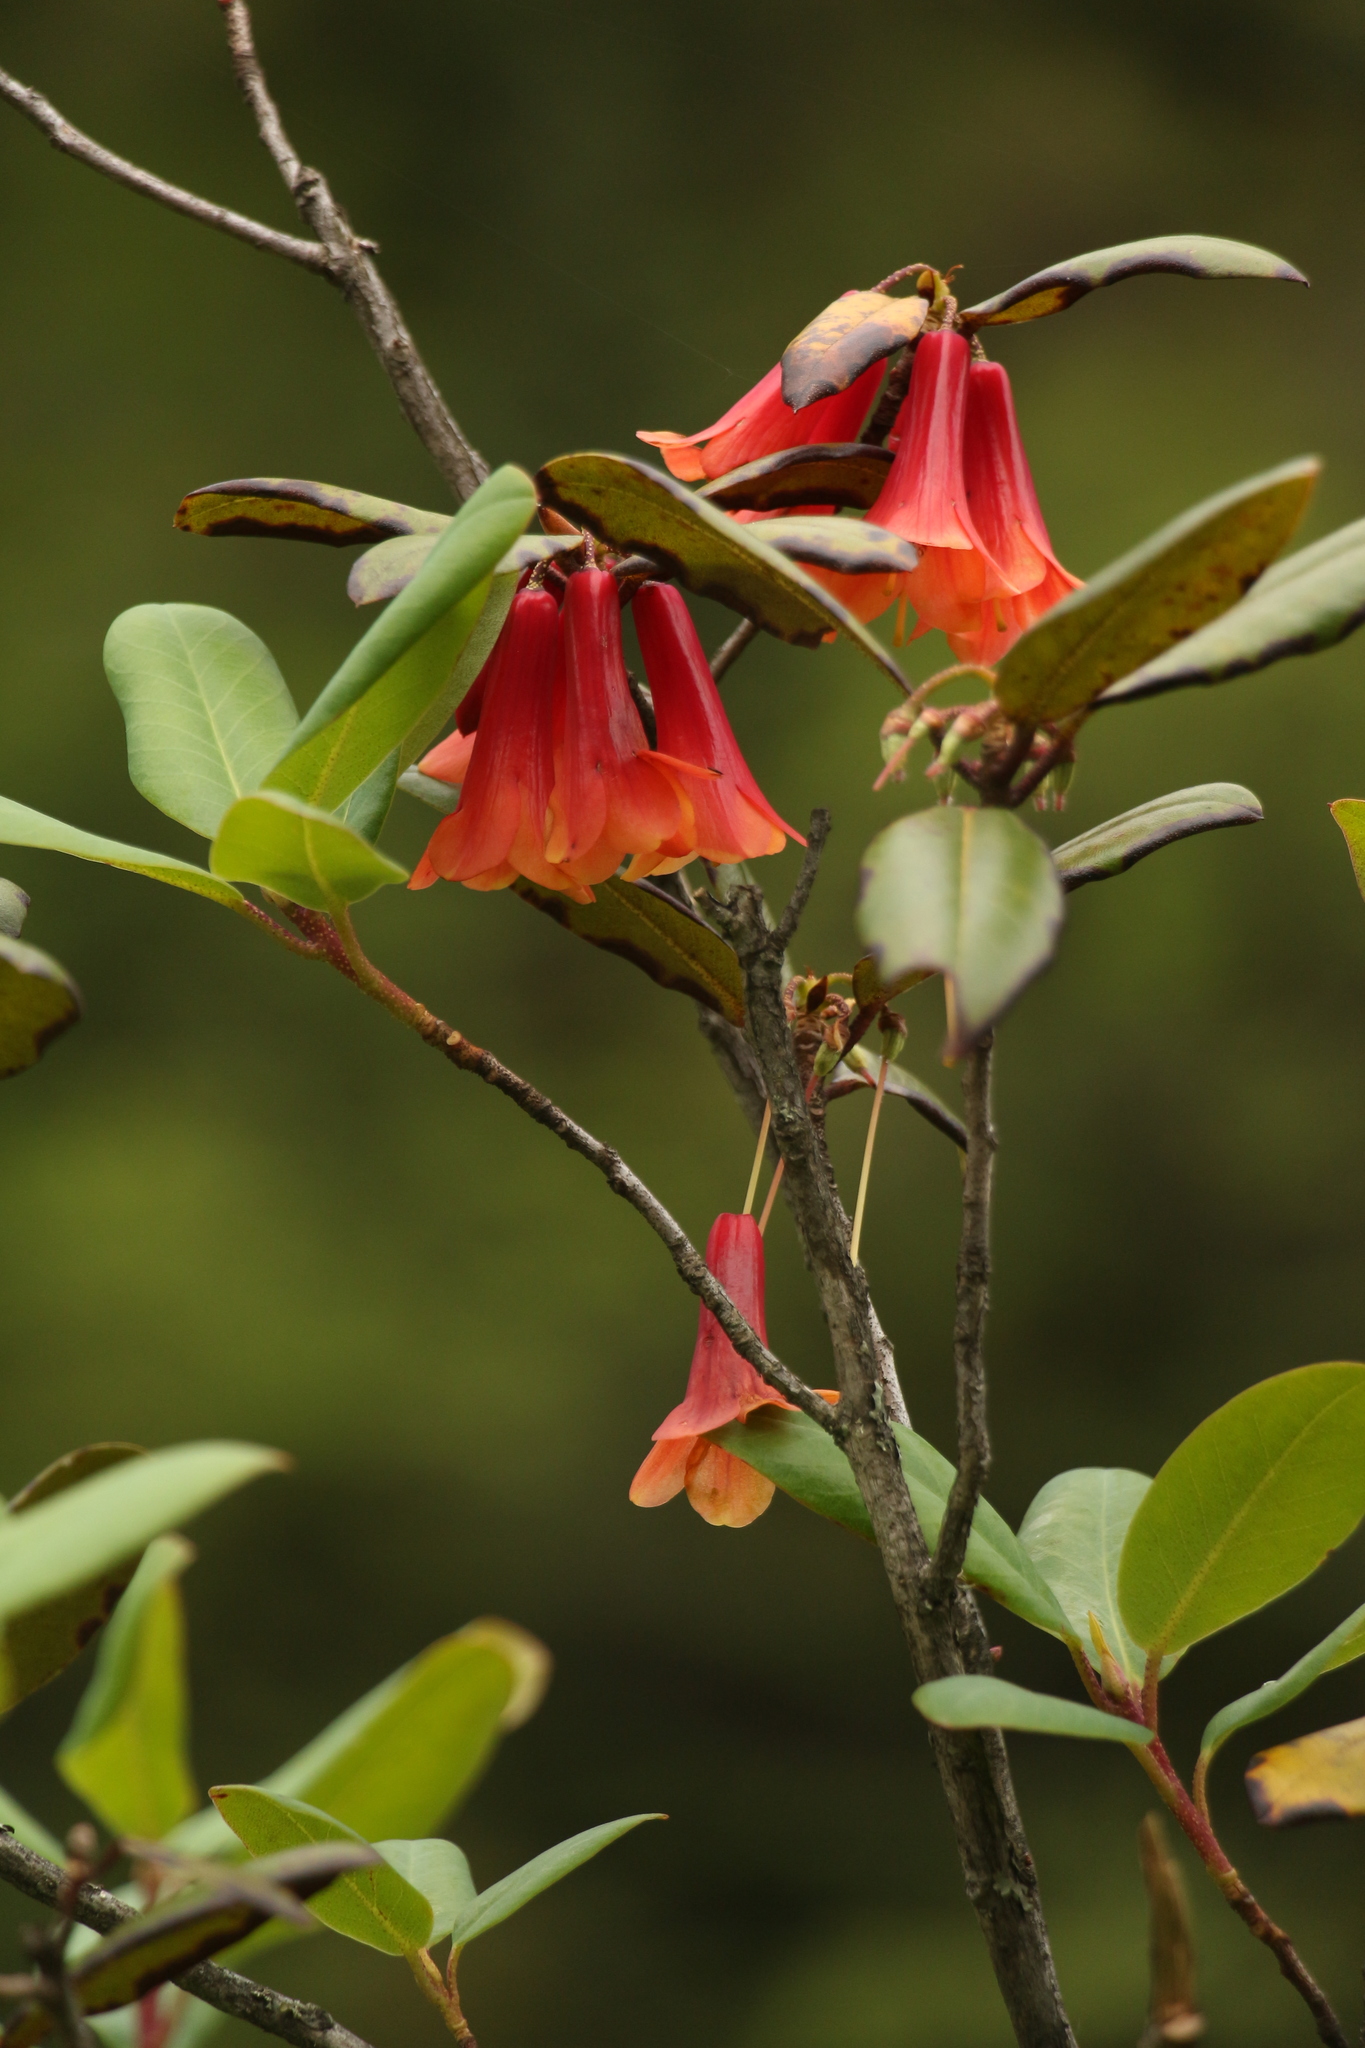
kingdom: Plantae
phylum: Tracheophyta
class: Magnoliopsida
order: Ericales
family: Ericaceae
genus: Rhododendron
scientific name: Rhododendron cinnabarinum
